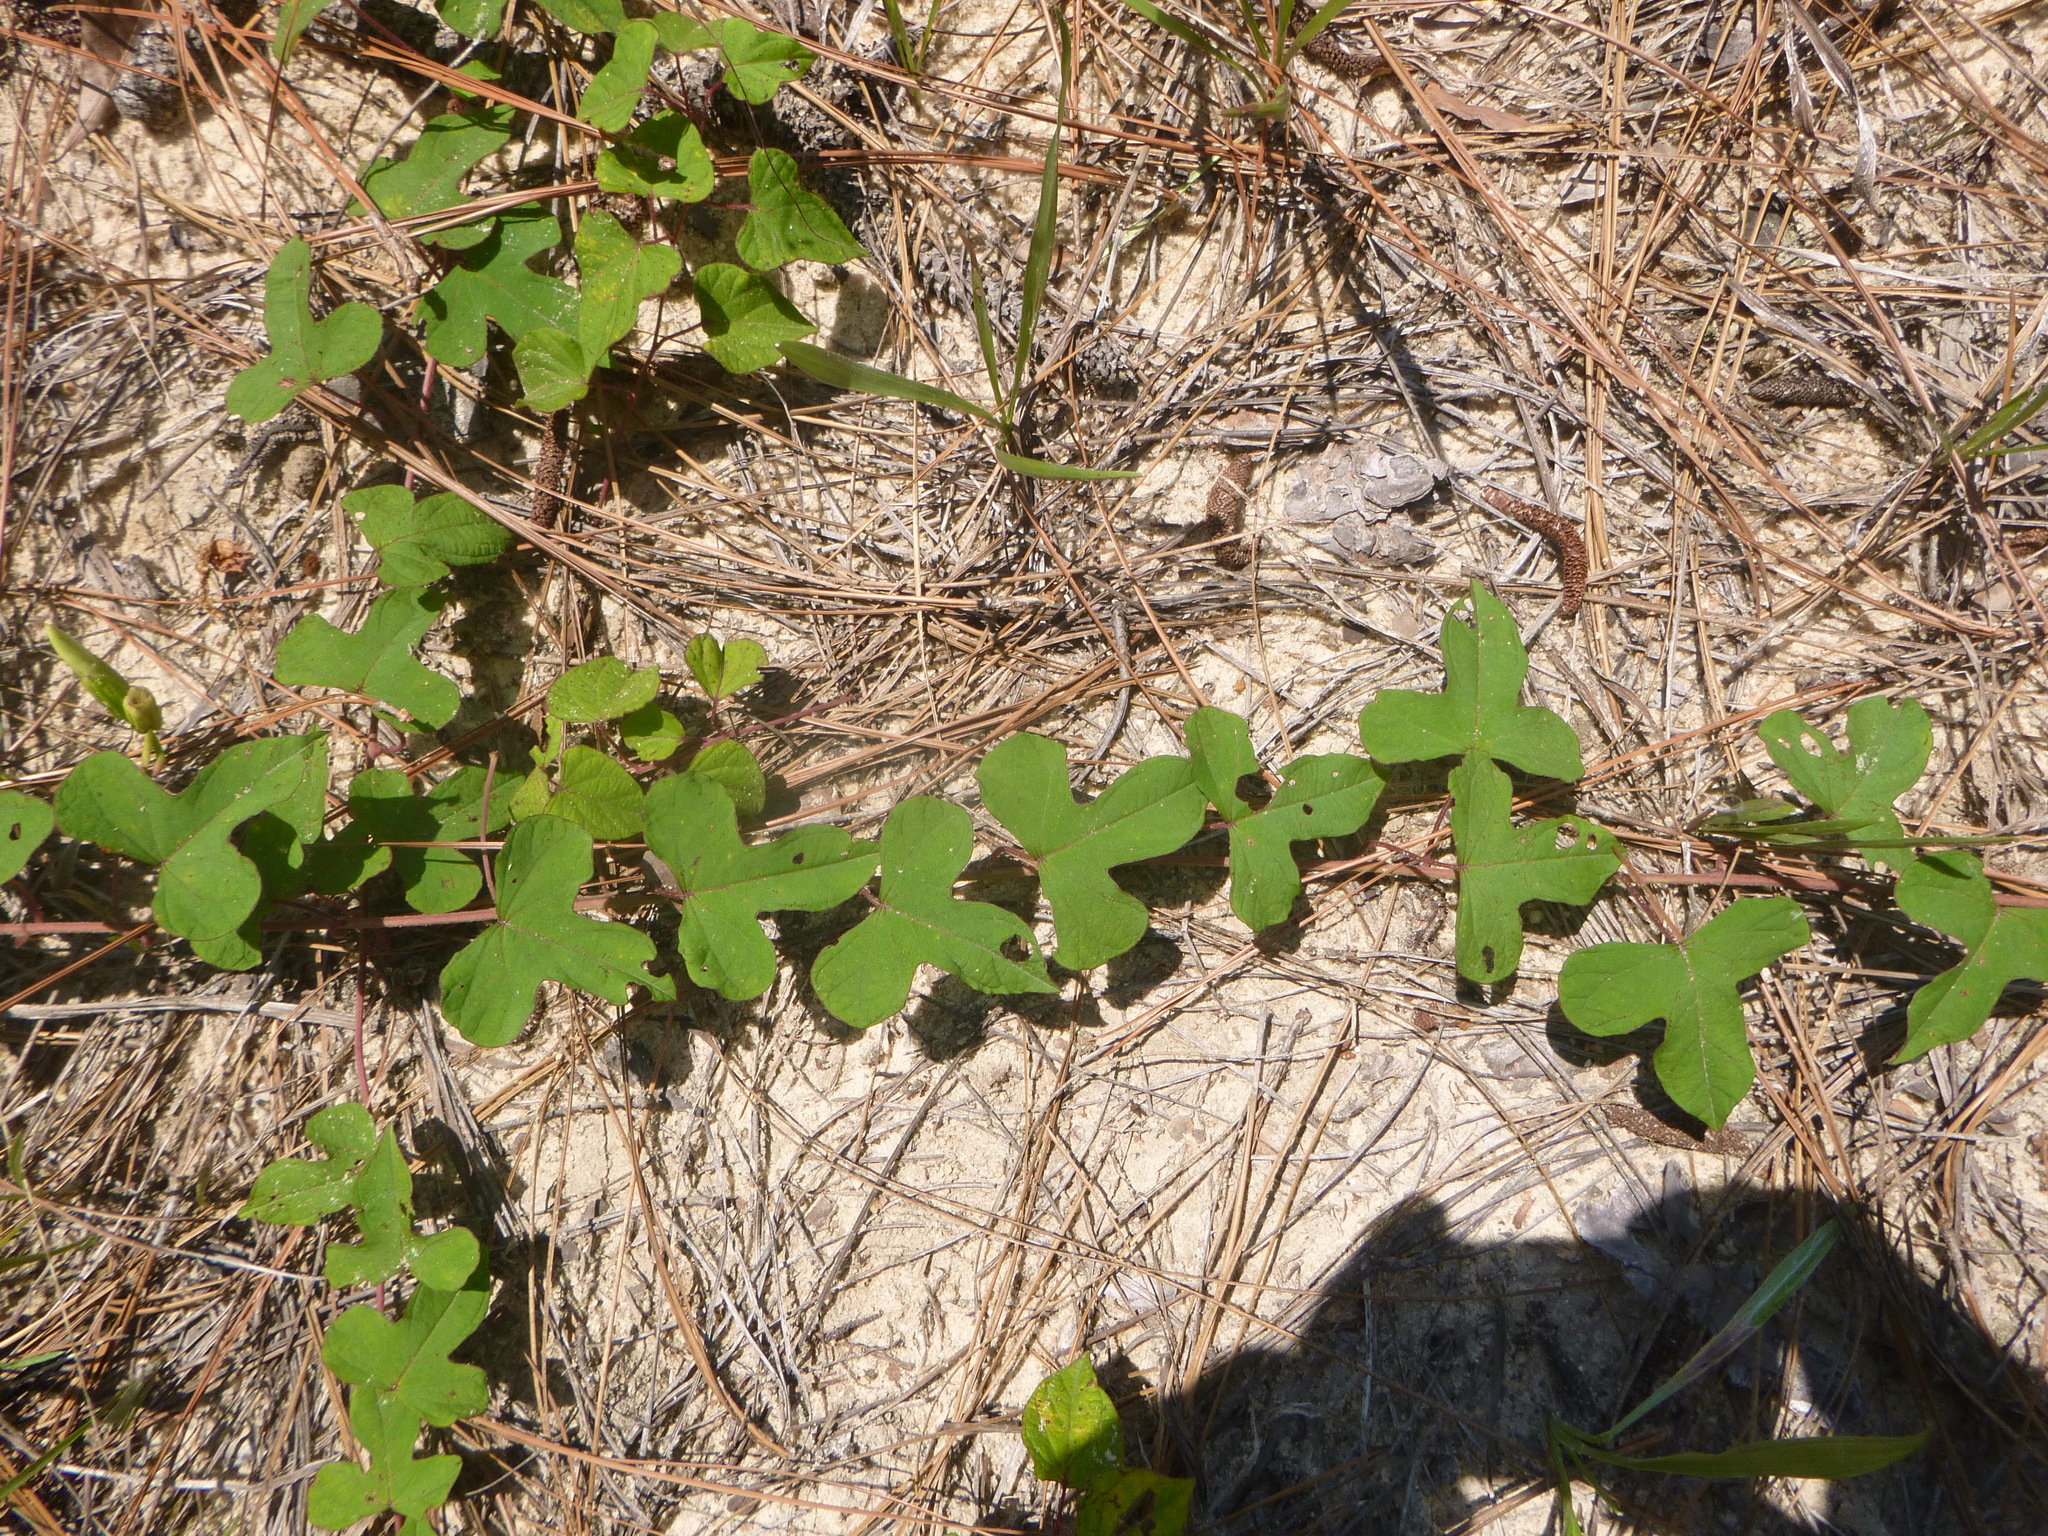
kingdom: Plantae
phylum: Tracheophyta
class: Magnoliopsida
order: Solanales
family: Convolvulaceae
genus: Ipomoea
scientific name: Ipomoea pandurata
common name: Man-of-the-earth
